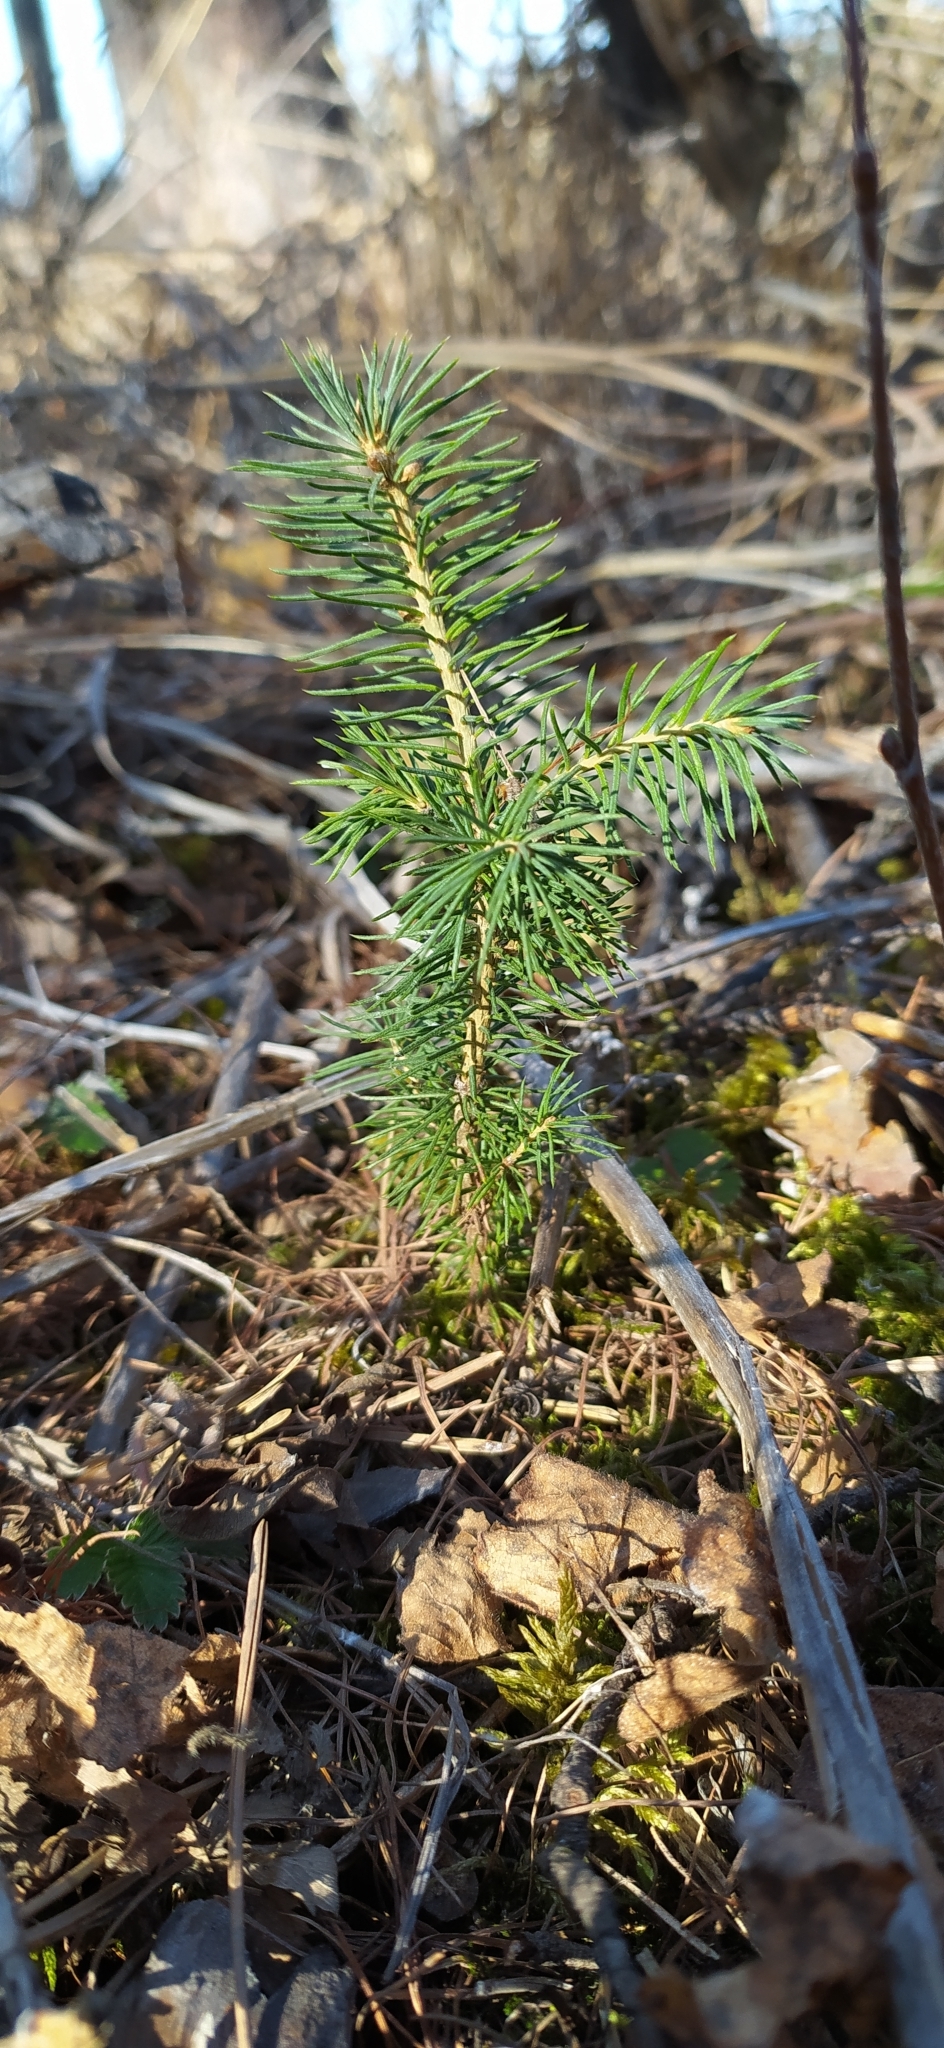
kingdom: Plantae
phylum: Tracheophyta
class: Pinopsida
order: Pinales
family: Pinaceae
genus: Picea
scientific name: Picea obovata
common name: Siberian spruce
